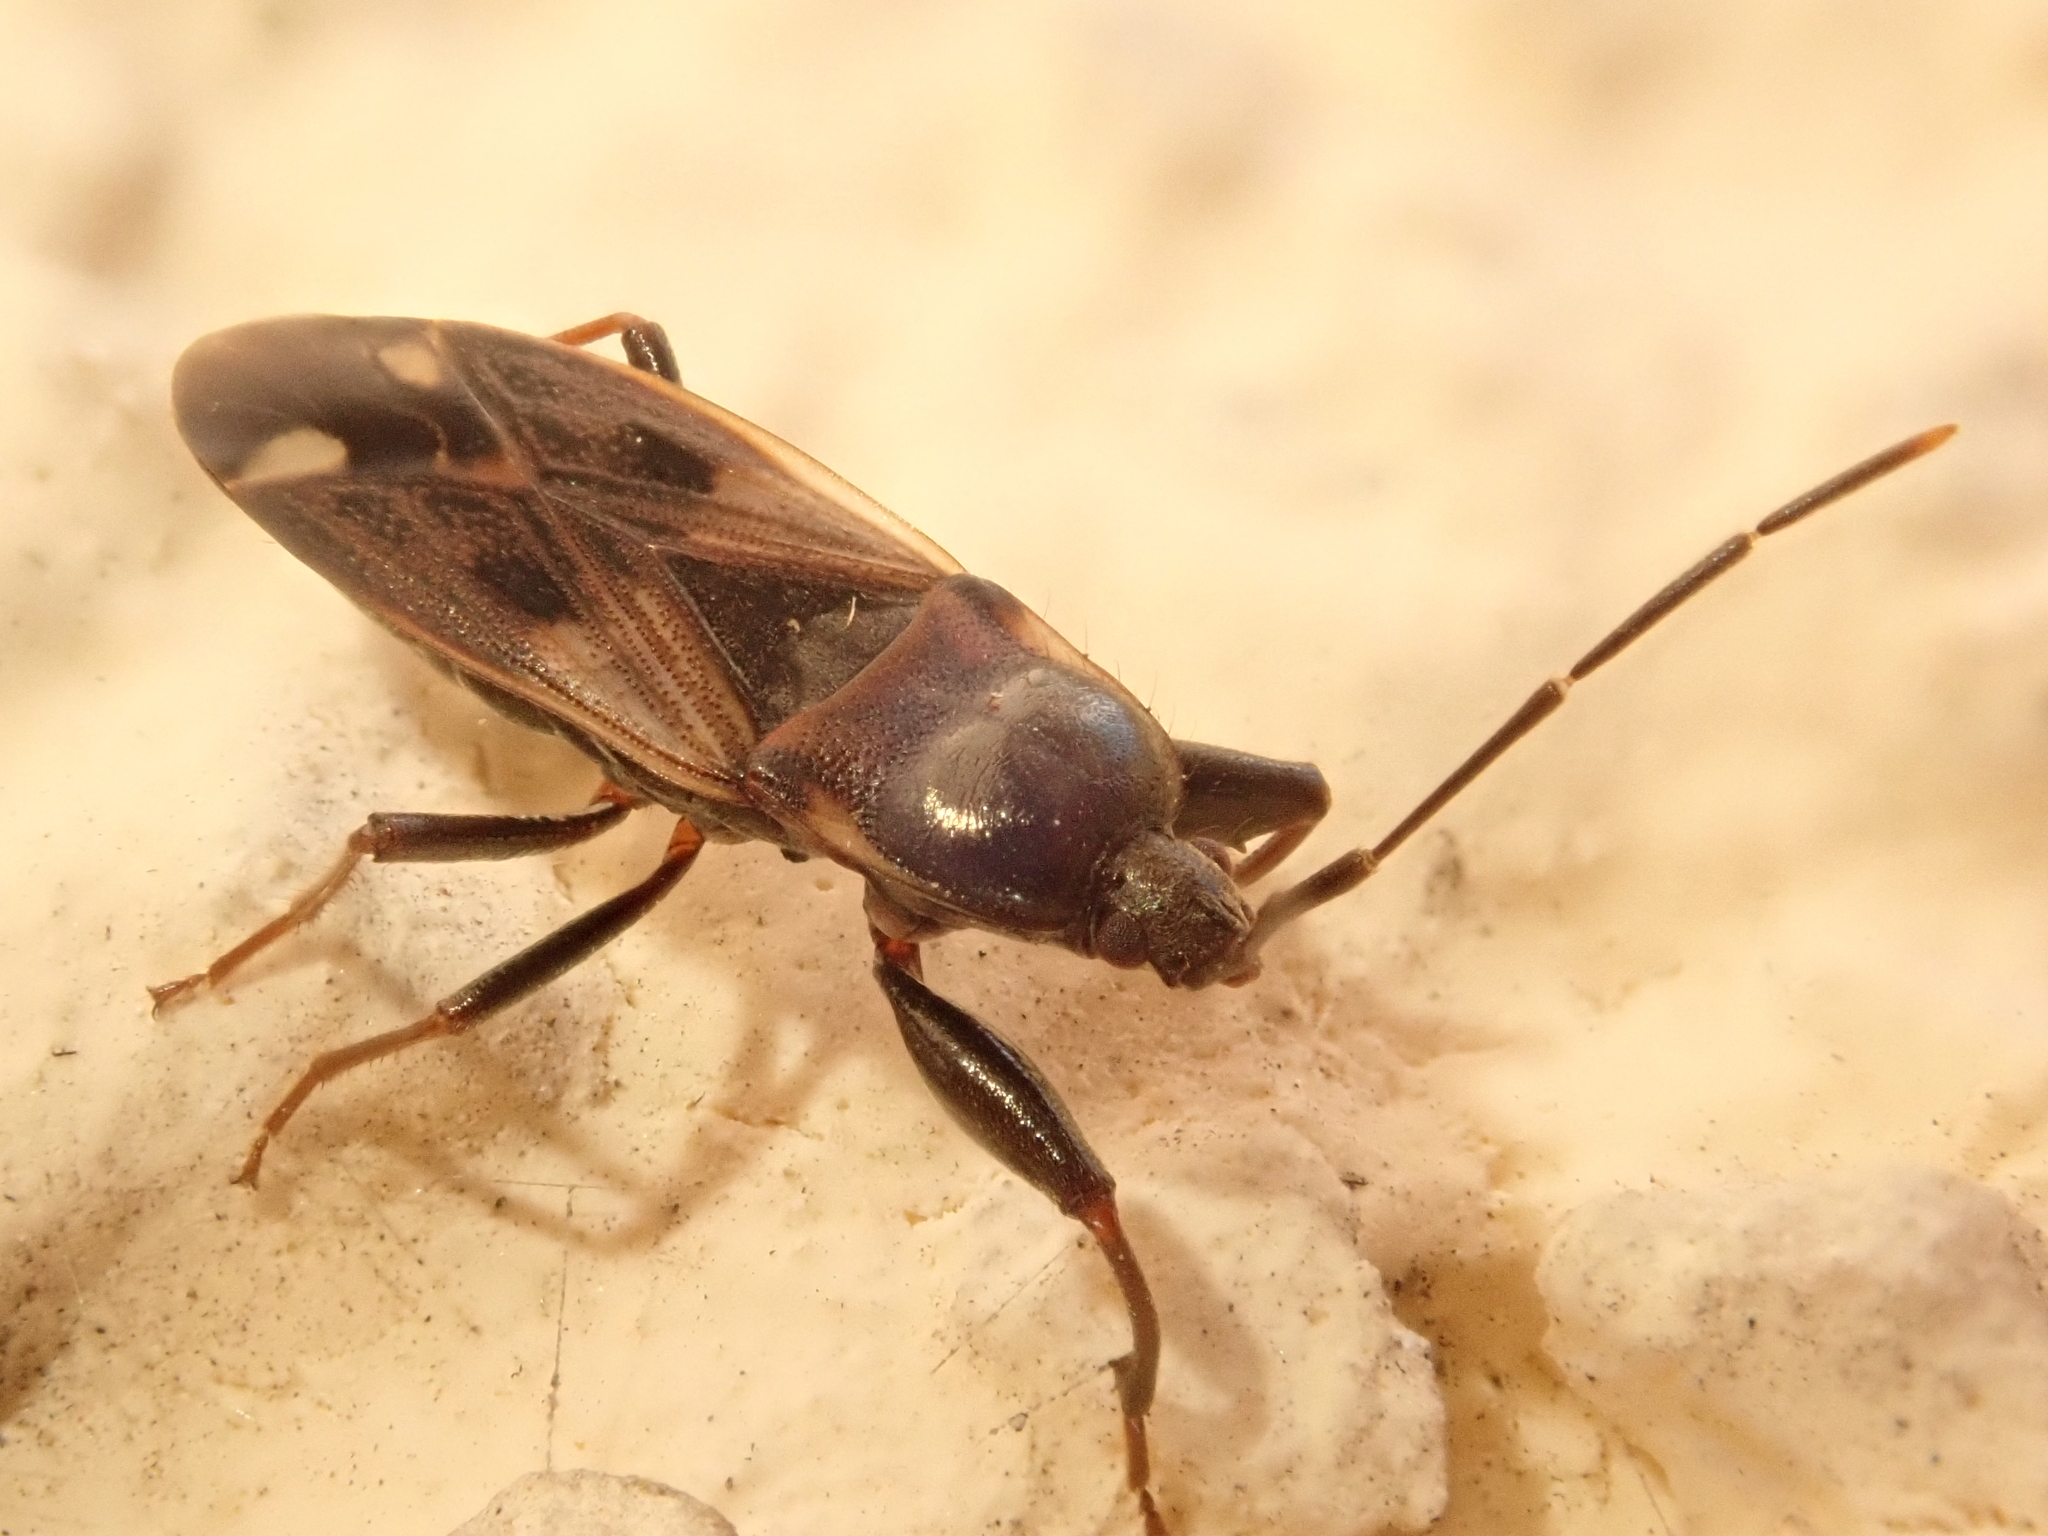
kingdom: Animalia
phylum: Arthropoda
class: Insecta
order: Hemiptera
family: Rhyparochromidae
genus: Eremocoris
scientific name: Eremocoris fenestratus
